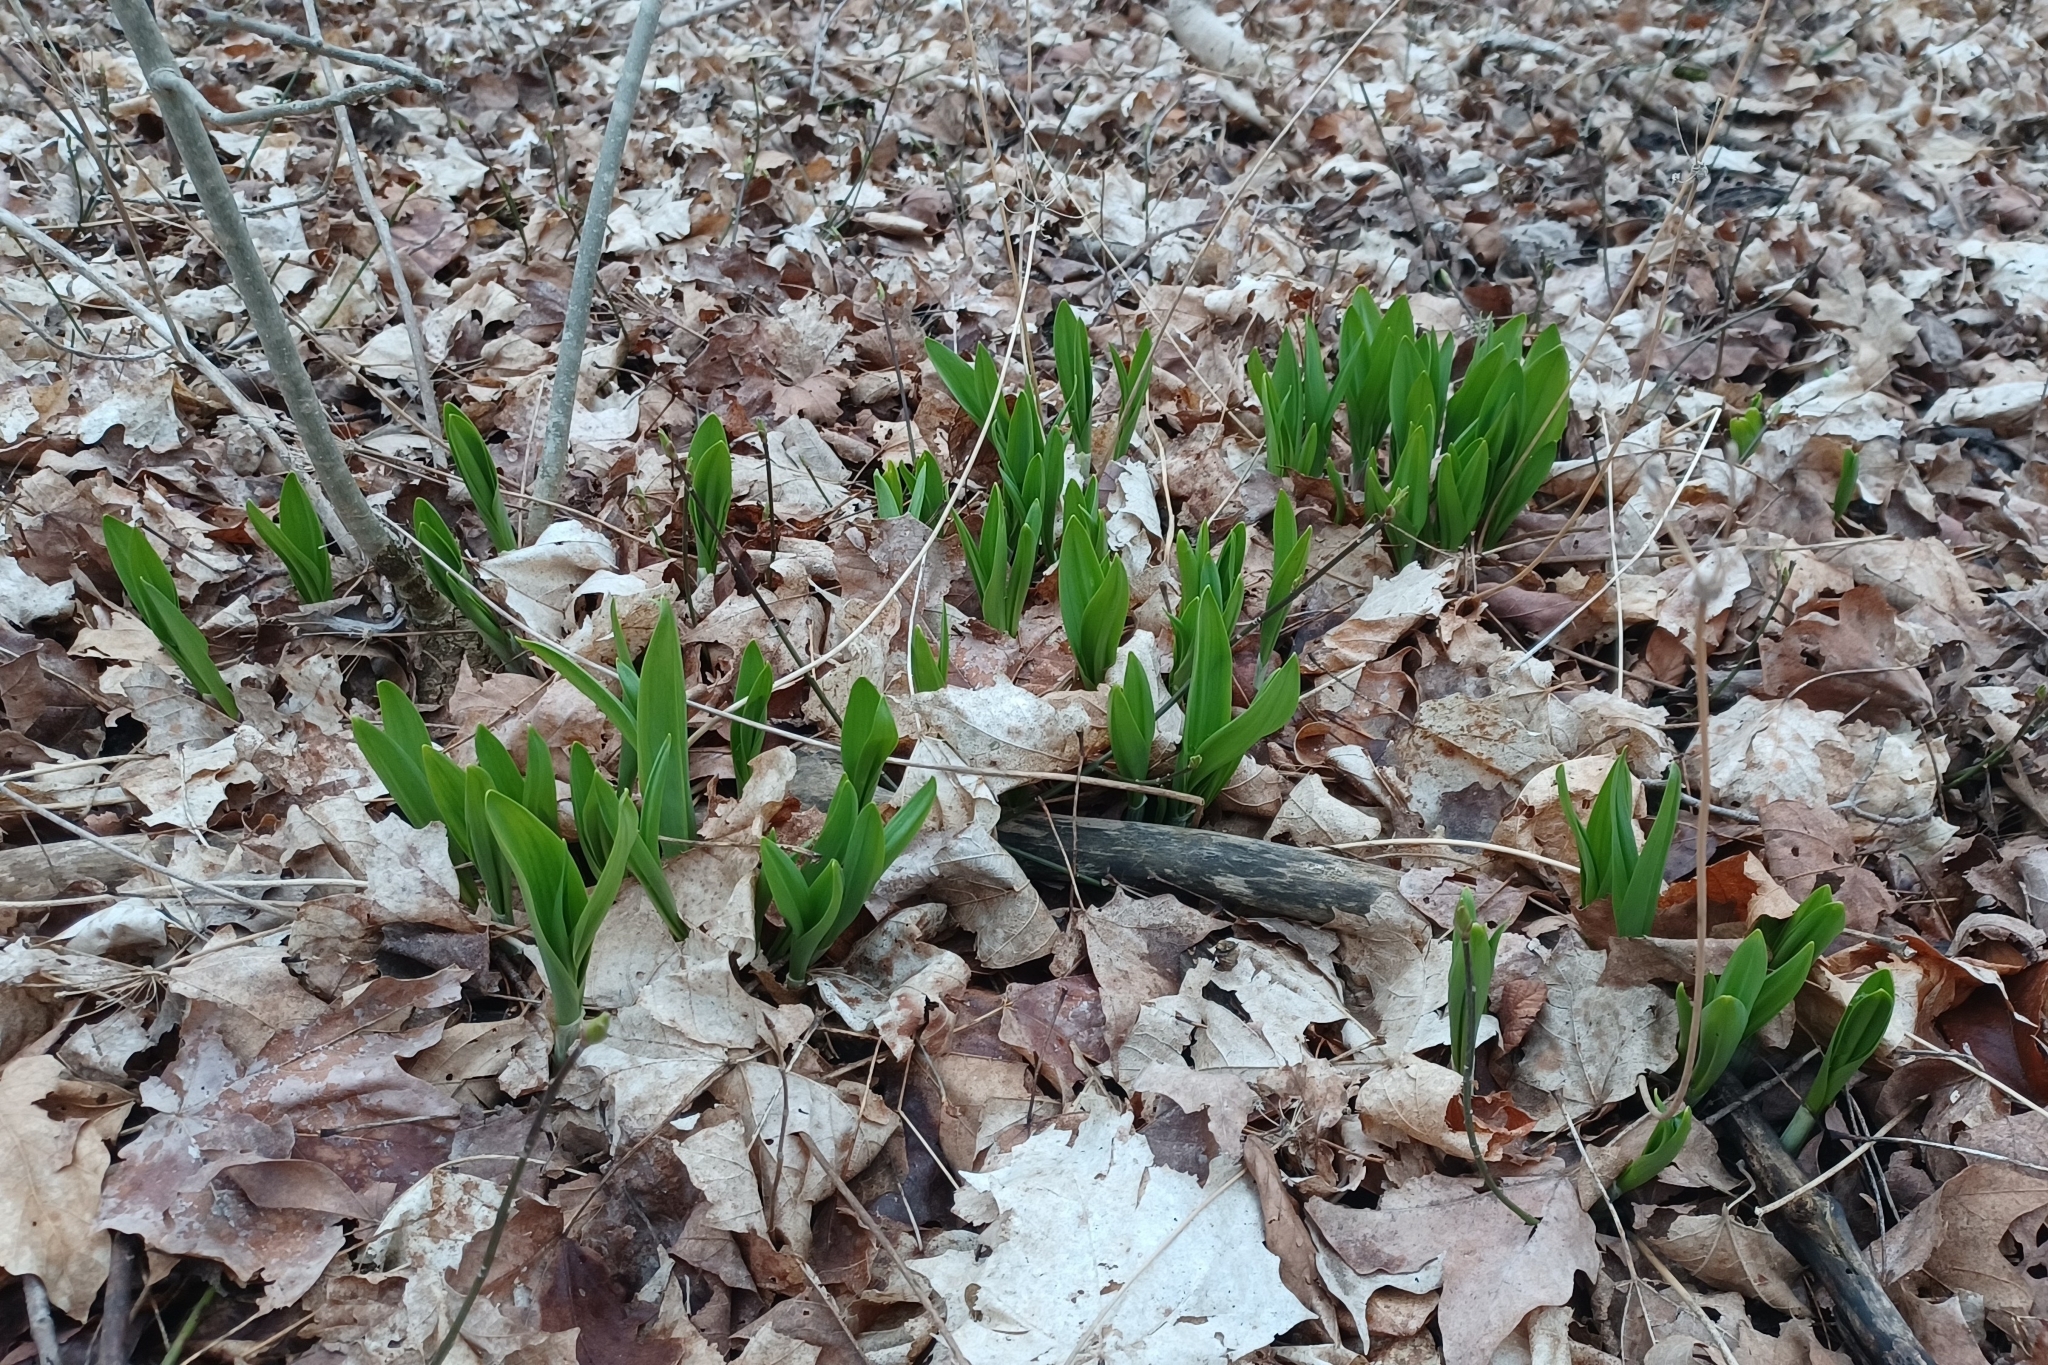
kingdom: Plantae
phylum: Tracheophyta
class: Liliopsida
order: Asparagales
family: Amaryllidaceae
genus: Allium
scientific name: Allium tricoccum
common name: Ramp
